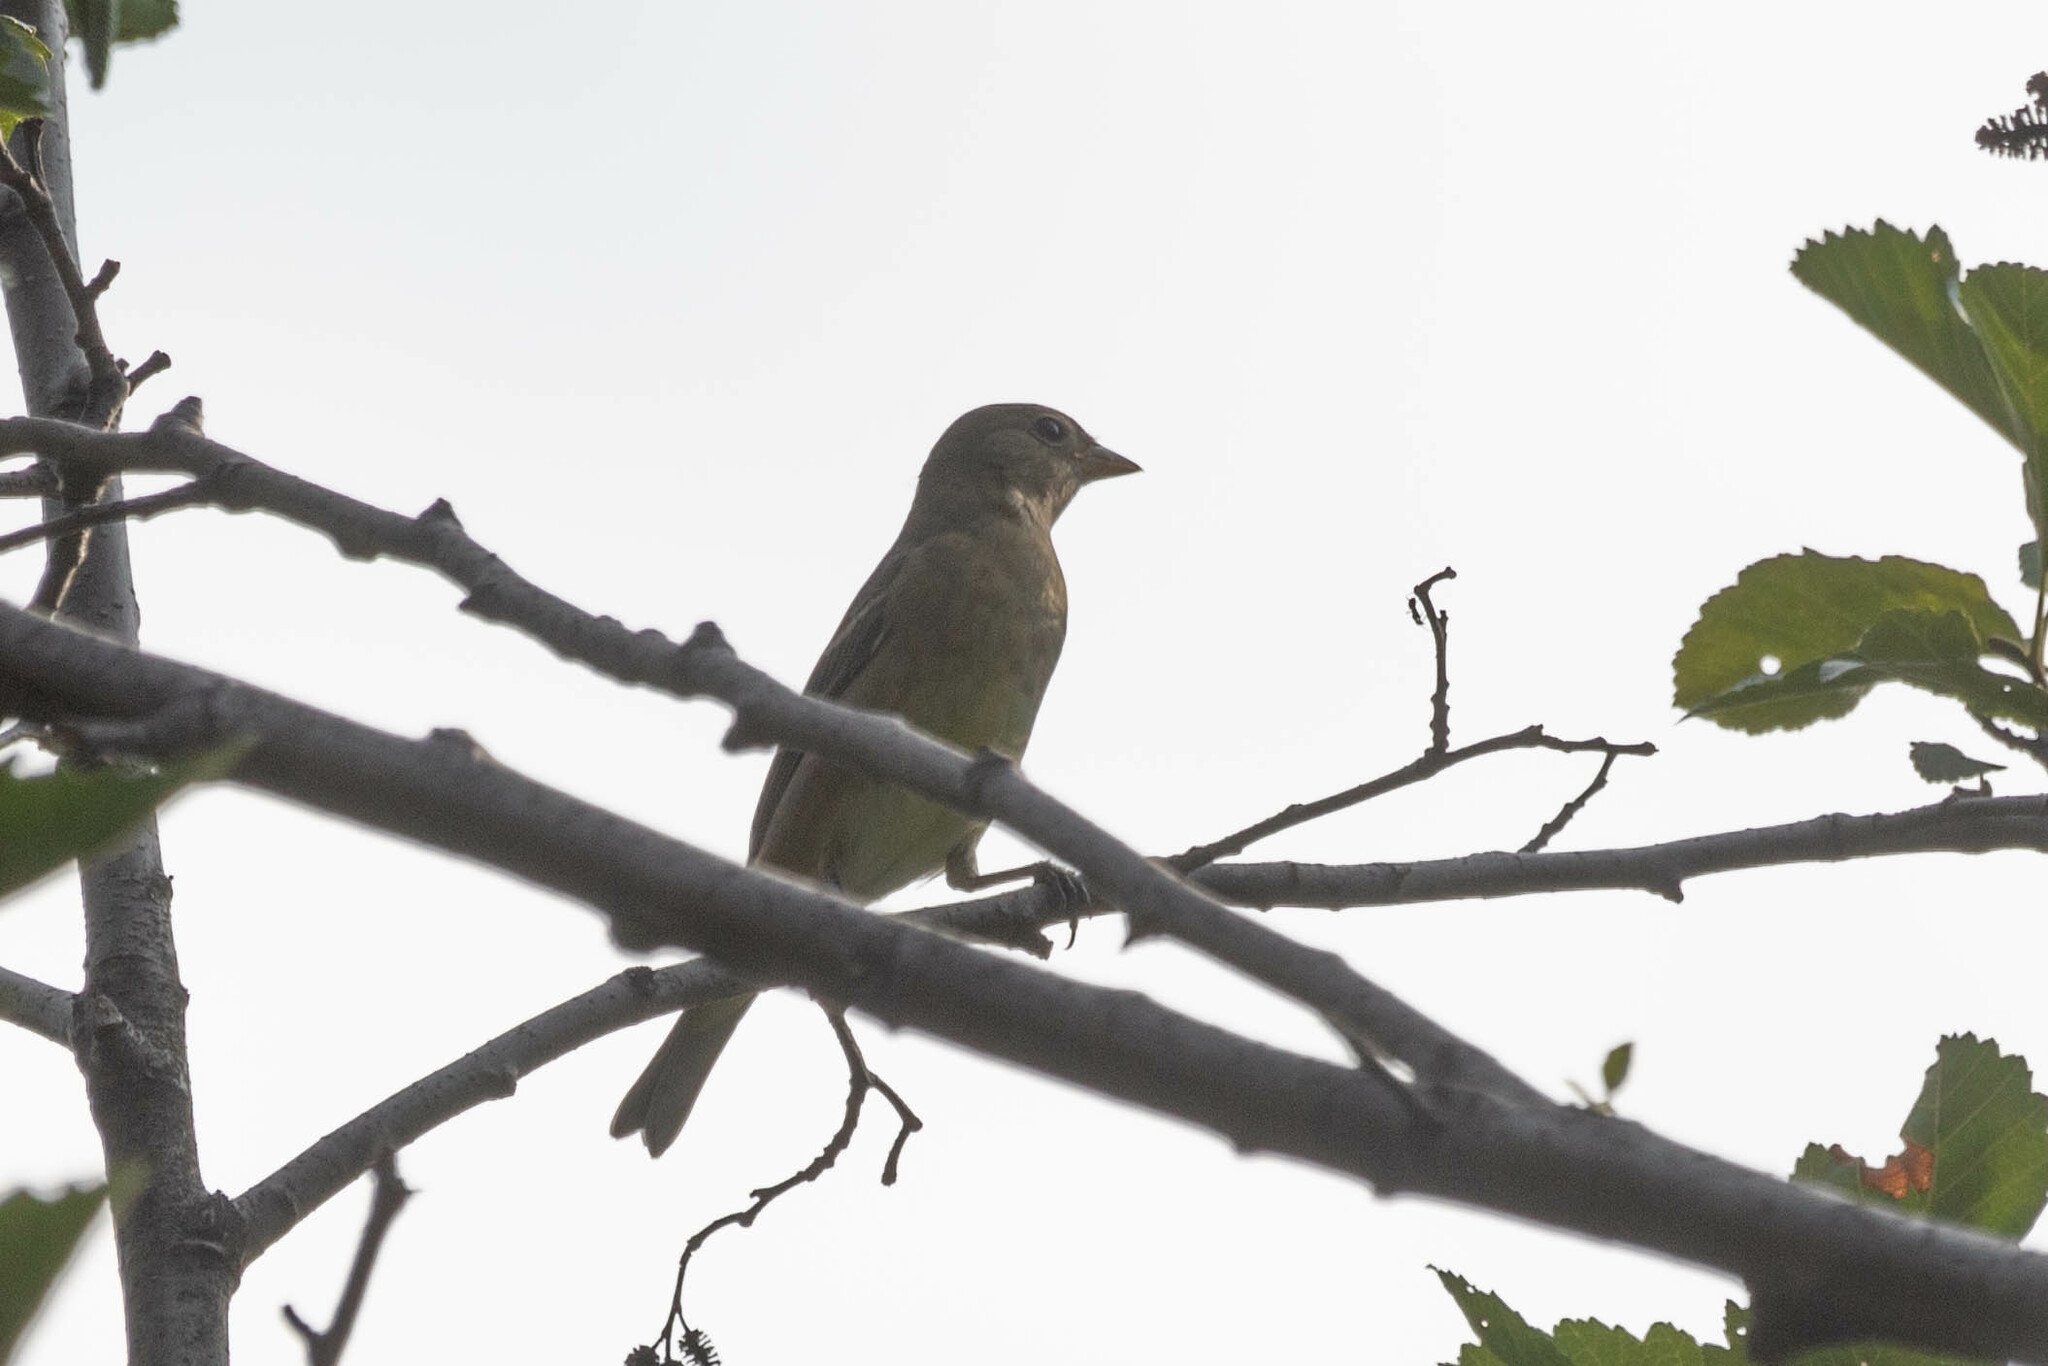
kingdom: Animalia
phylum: Chordata
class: Aves
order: Passeriformes
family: Cardinalidae
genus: Piranga
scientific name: Piranga ludoviciana
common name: Western tanager
